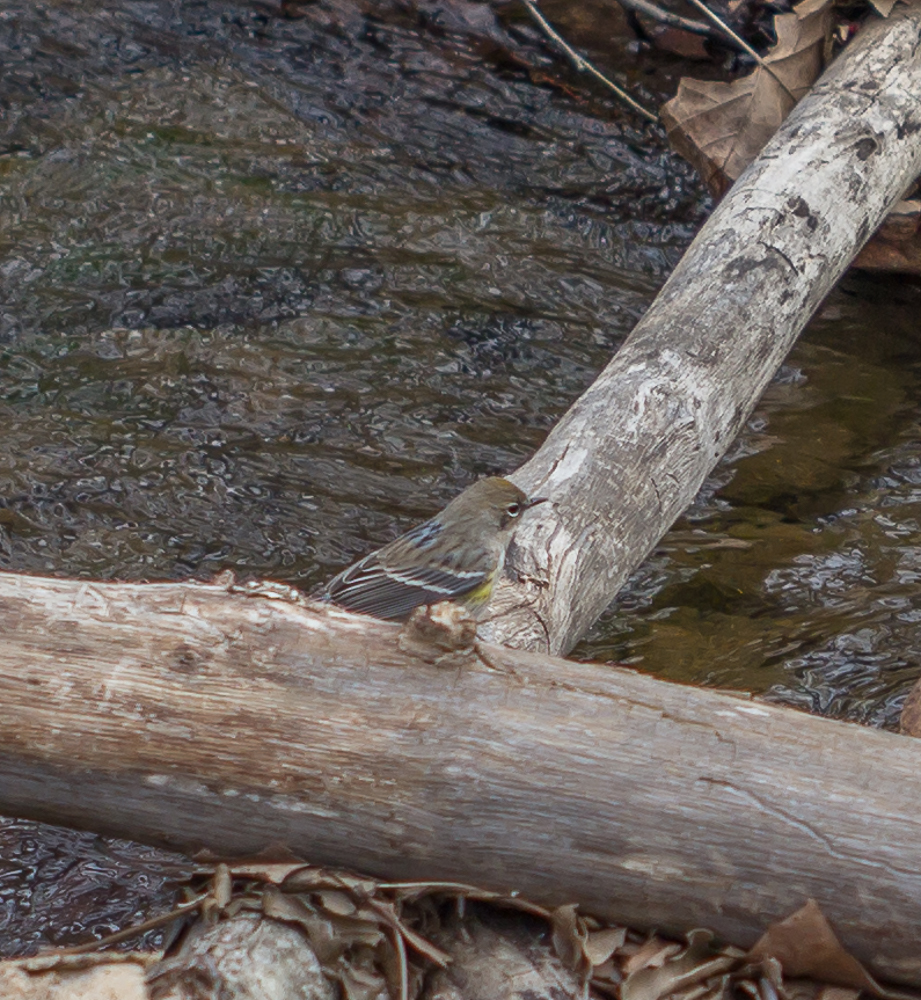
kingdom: Animalia
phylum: Chordata
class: Aves
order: Passeriformes
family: Parulidae
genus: Setophaga
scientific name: Setophaga coronata
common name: Myrtle warbler
